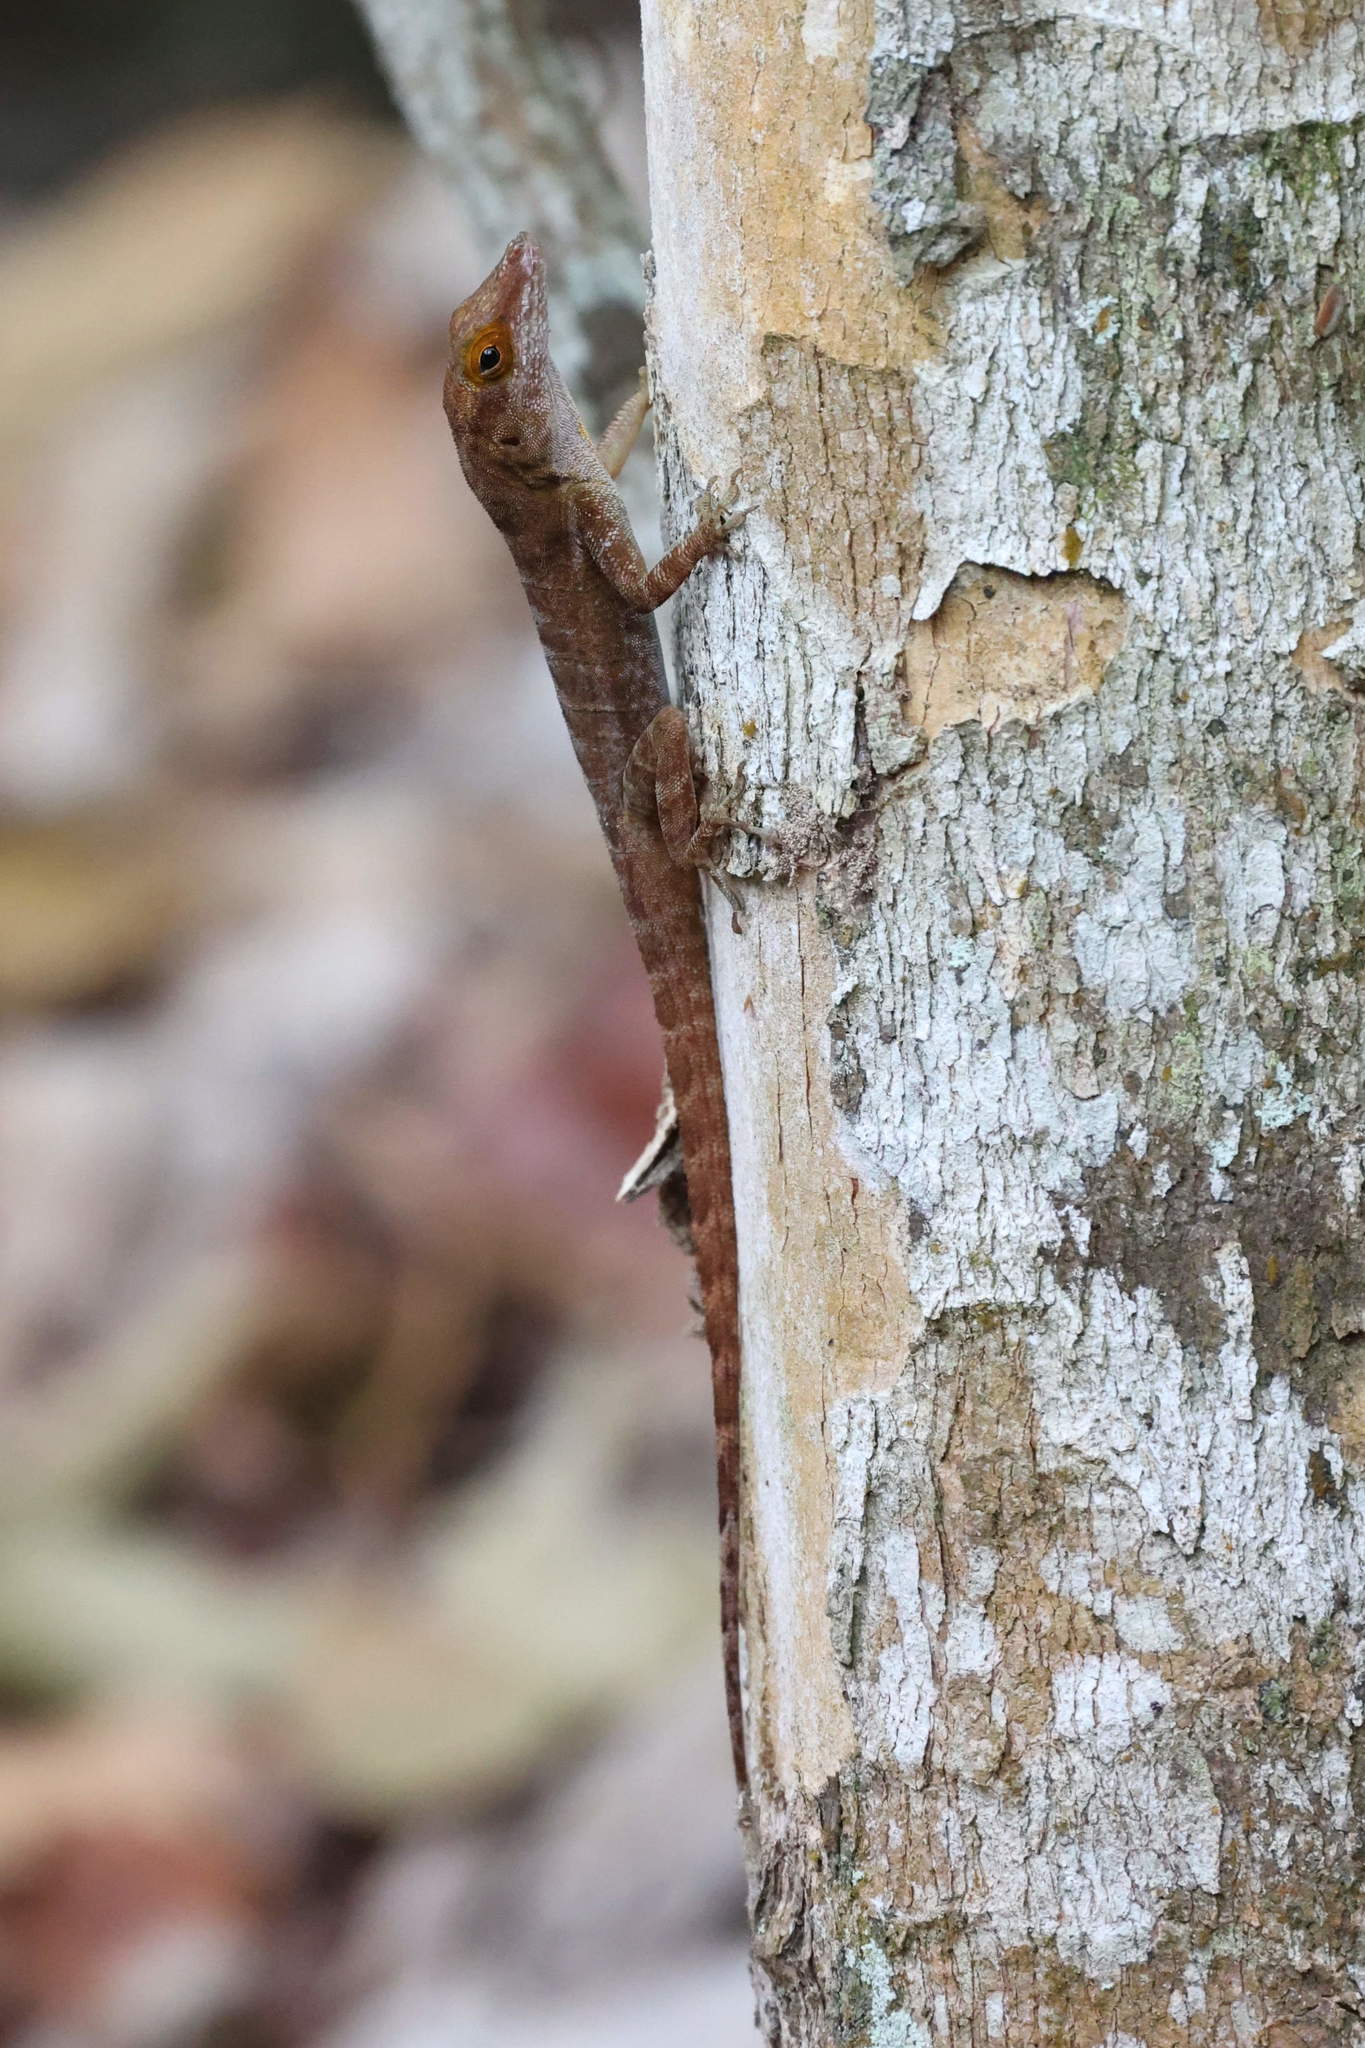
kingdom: Animalia
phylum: Chordata
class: Squamata
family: Dactyloidae
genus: Anolis
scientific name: Anolis marmoratus
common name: Guadeloupe anole
